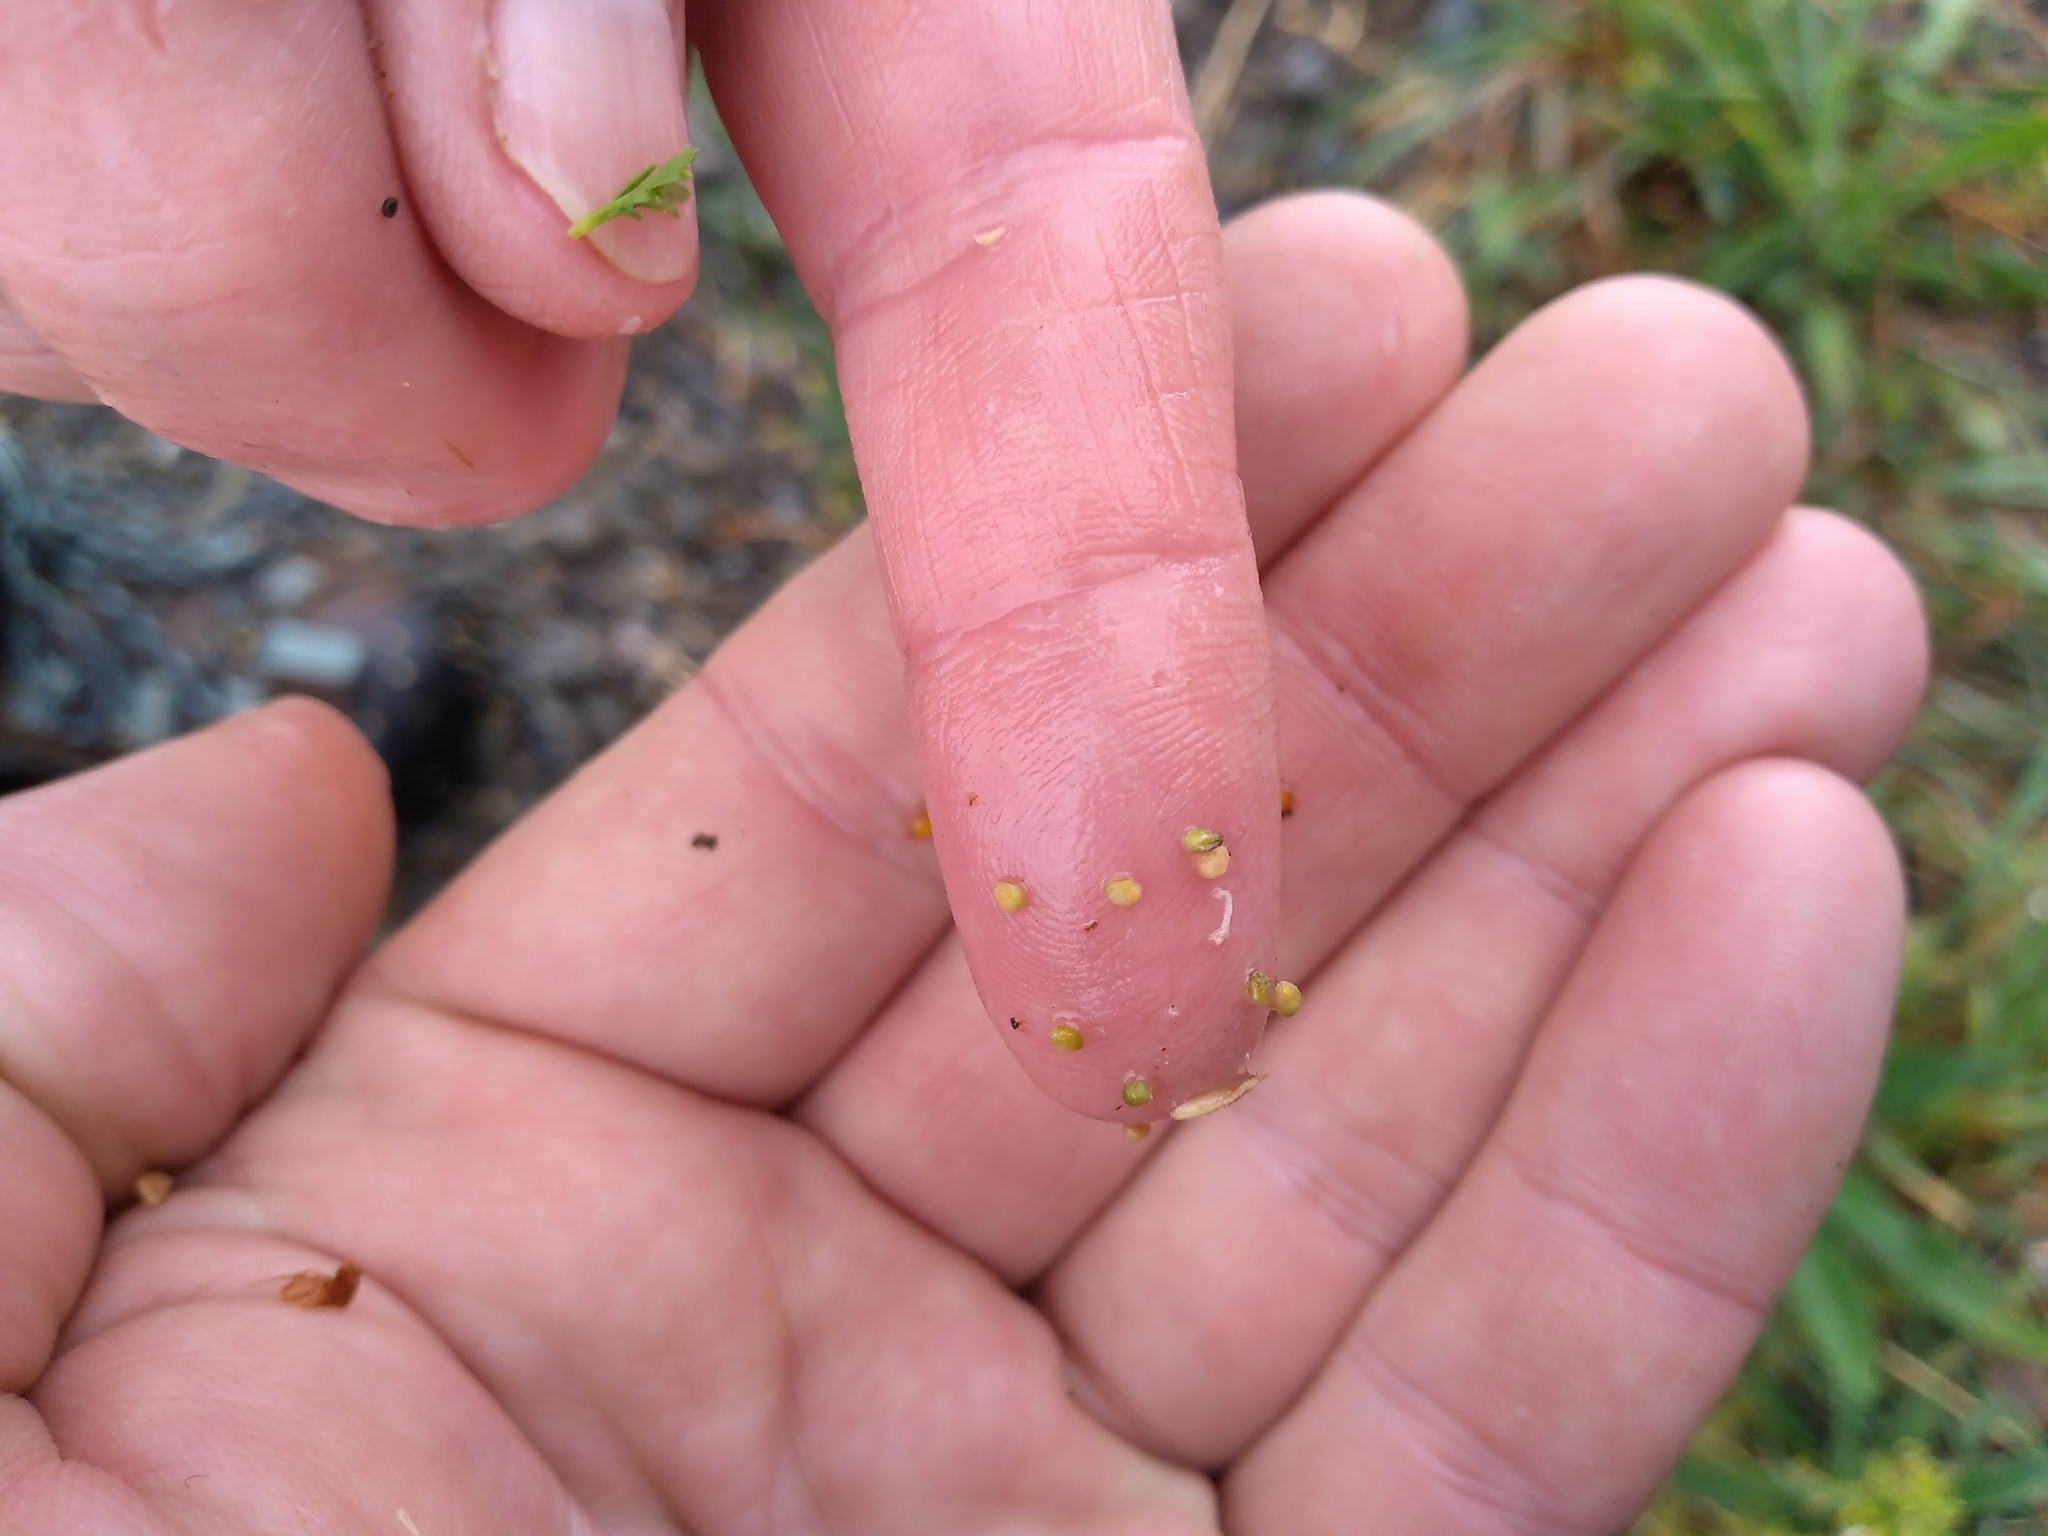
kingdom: Plantae
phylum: Tracheophyta
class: Magnoliopsida
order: Brassicales
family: Brassicaceae
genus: Lepidium
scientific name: Lepidium didymum
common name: Lesser swinecress
